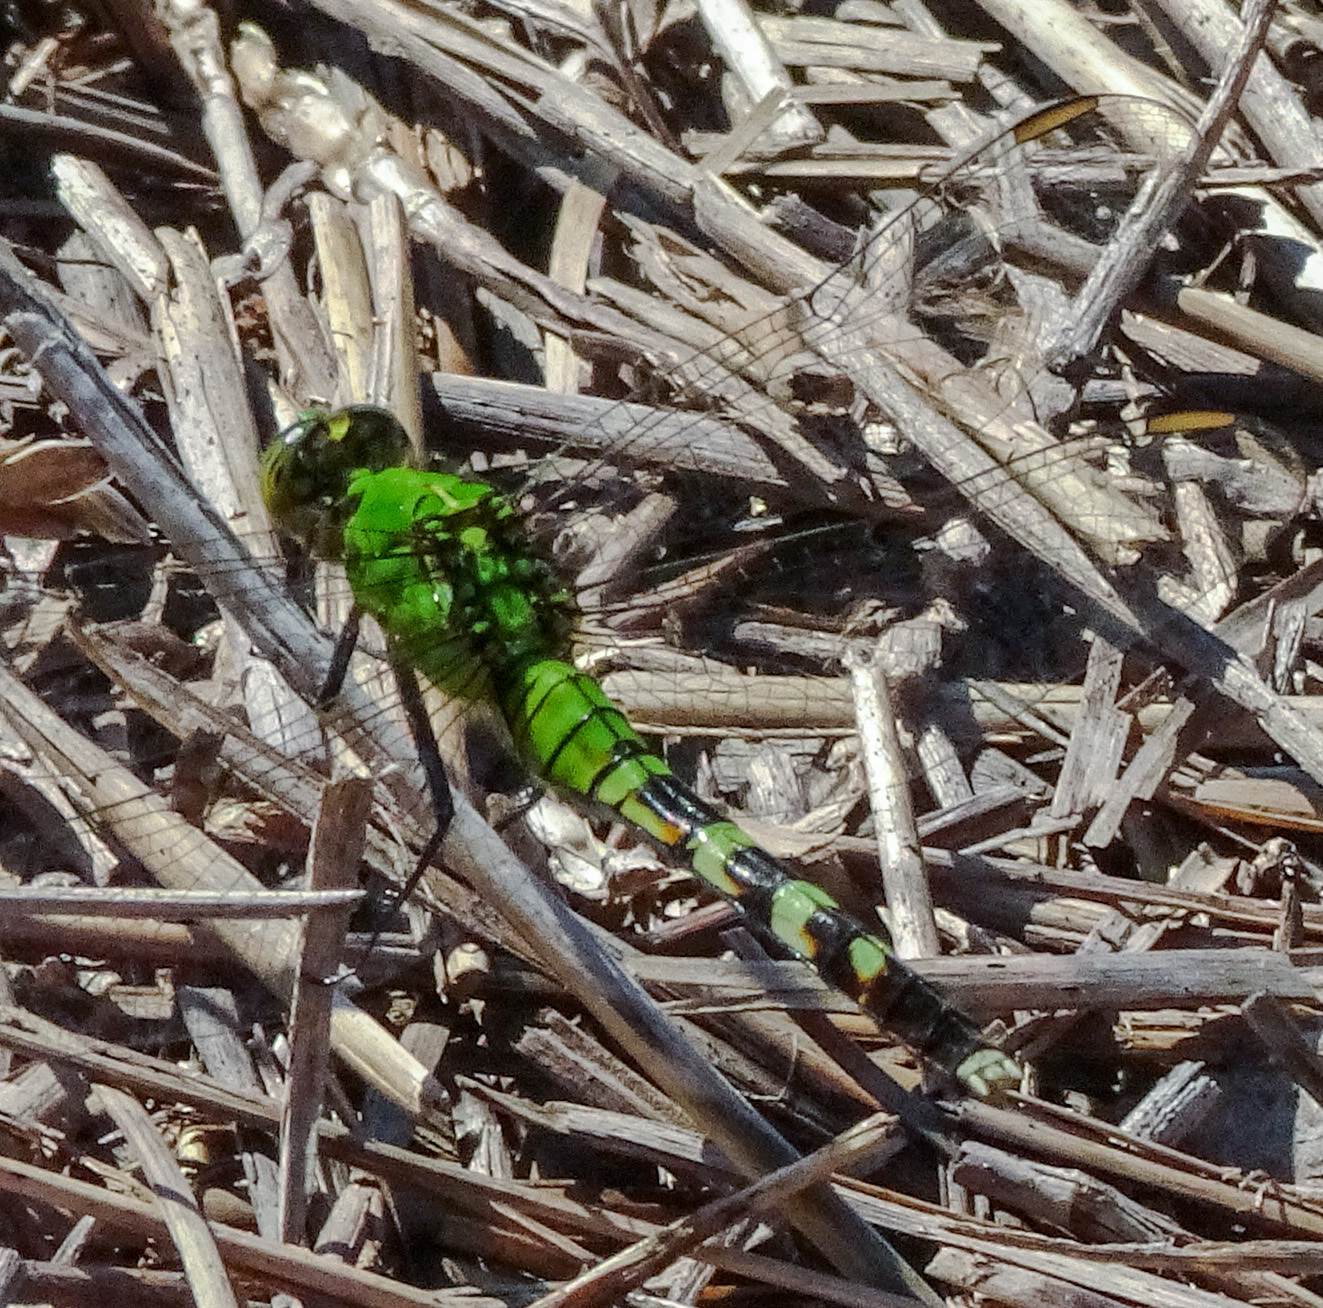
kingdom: Animalia
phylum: Arthropoda
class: Insecta
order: Odonata
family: Libellulidae
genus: Erythemis
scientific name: Erythemis simplicicollis
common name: Eastern pondhawk
